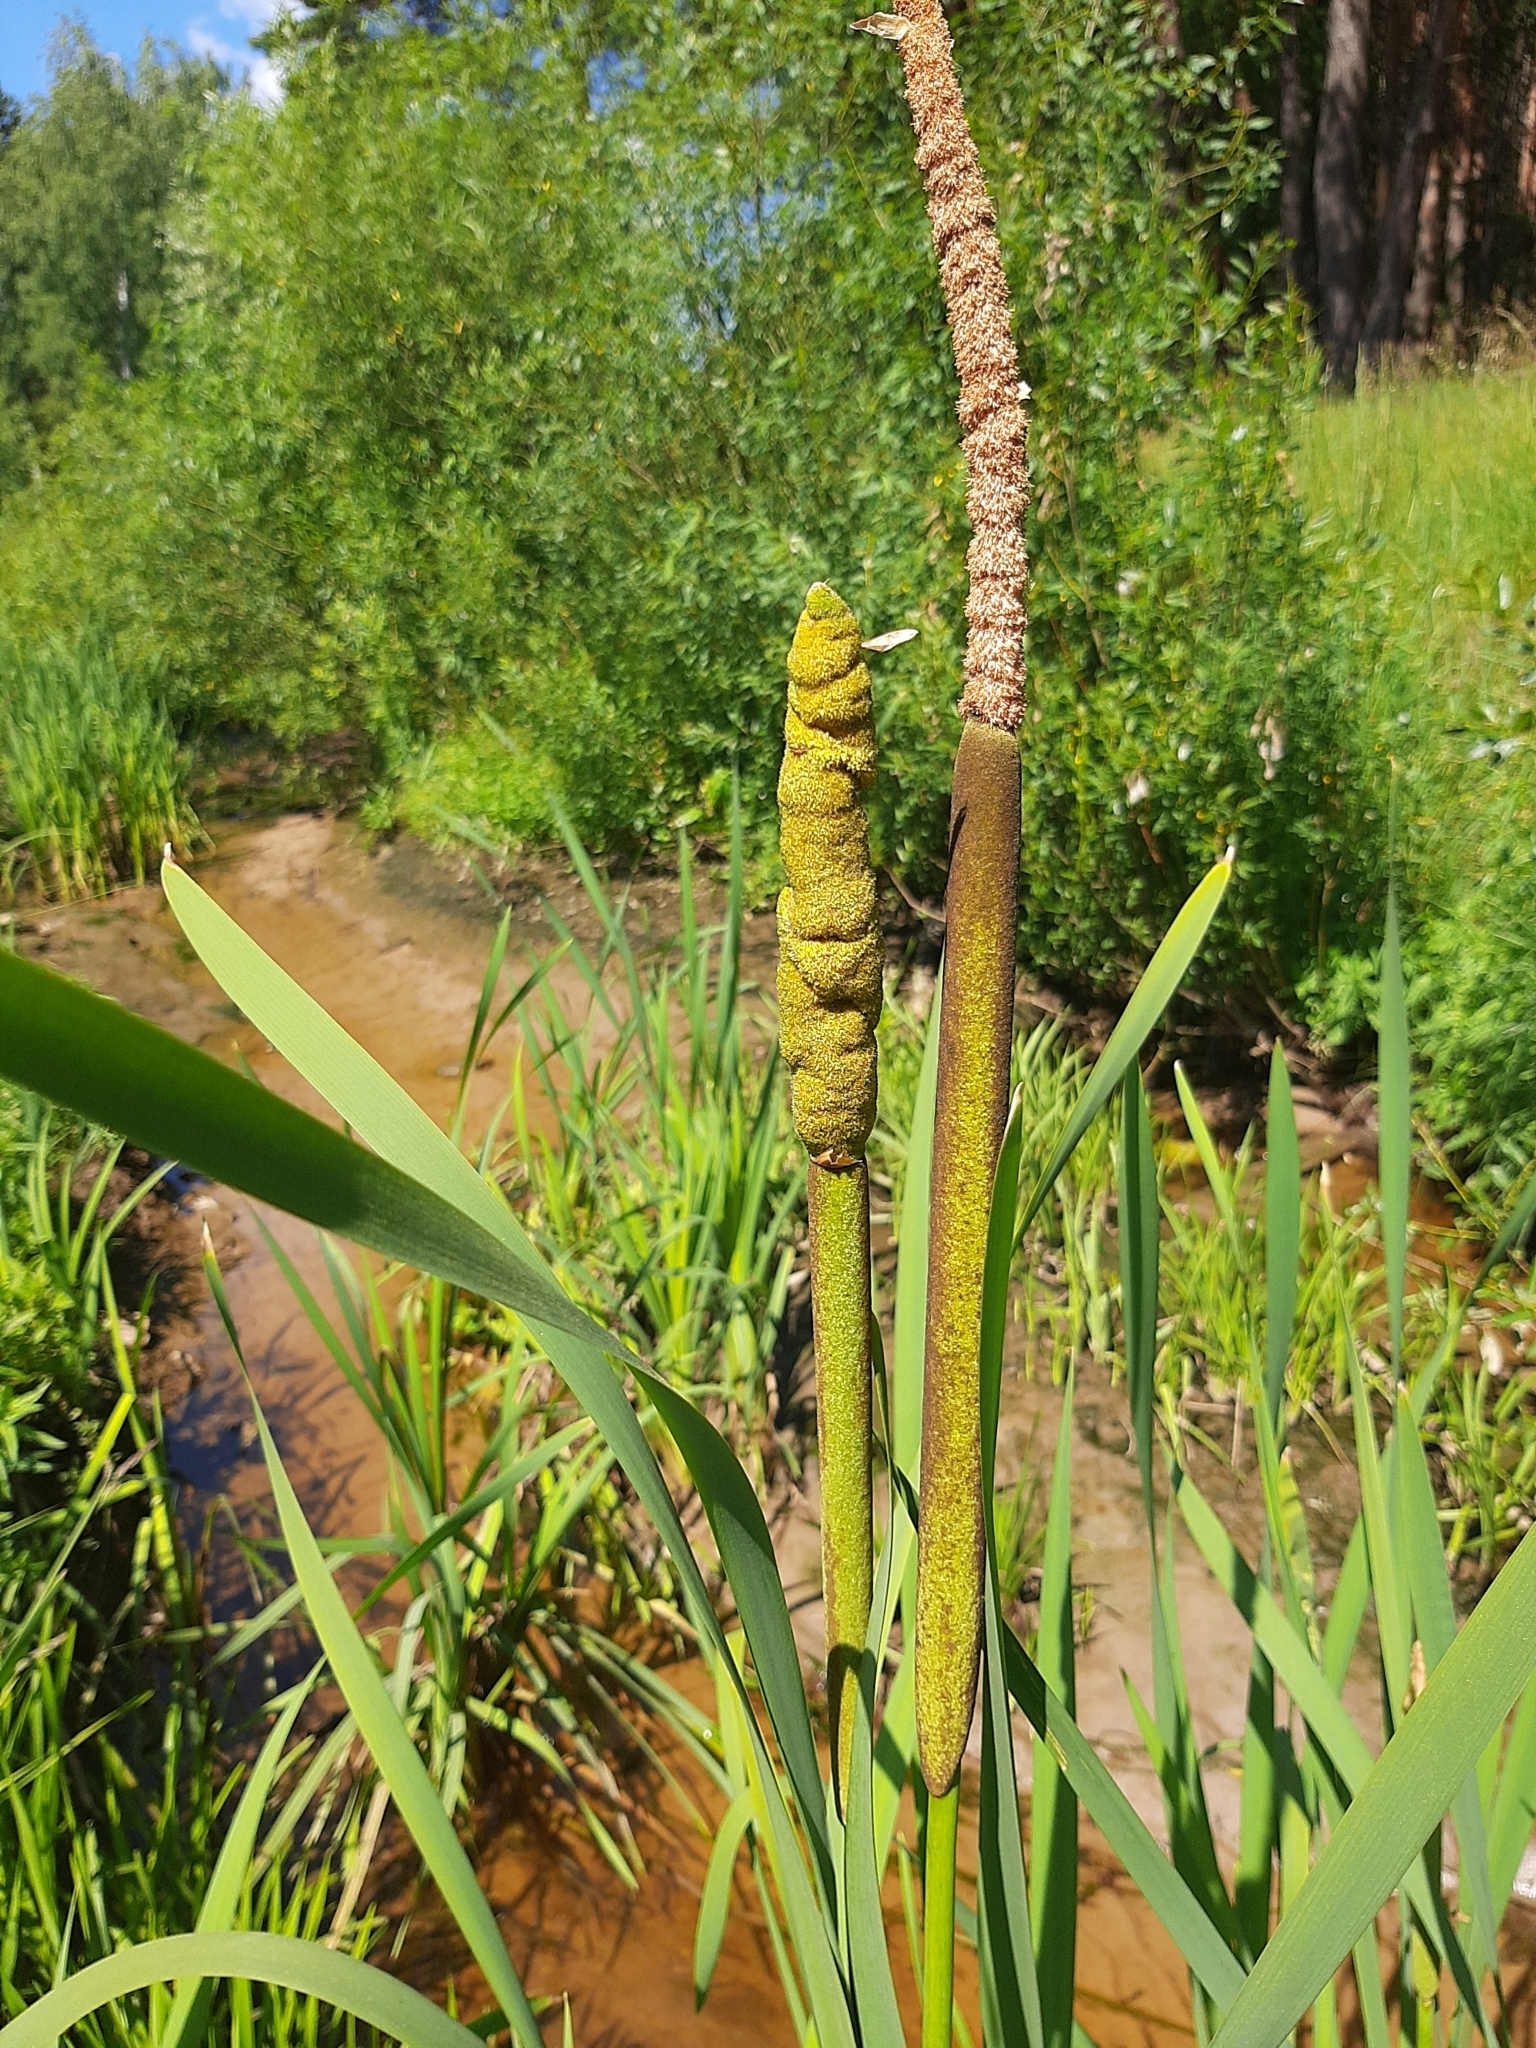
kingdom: Plantae
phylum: Tracheophyta
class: Liliopsida
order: Poales
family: Typhaceae
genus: Typha
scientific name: Typha latifolia
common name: Broadleaf cattail
